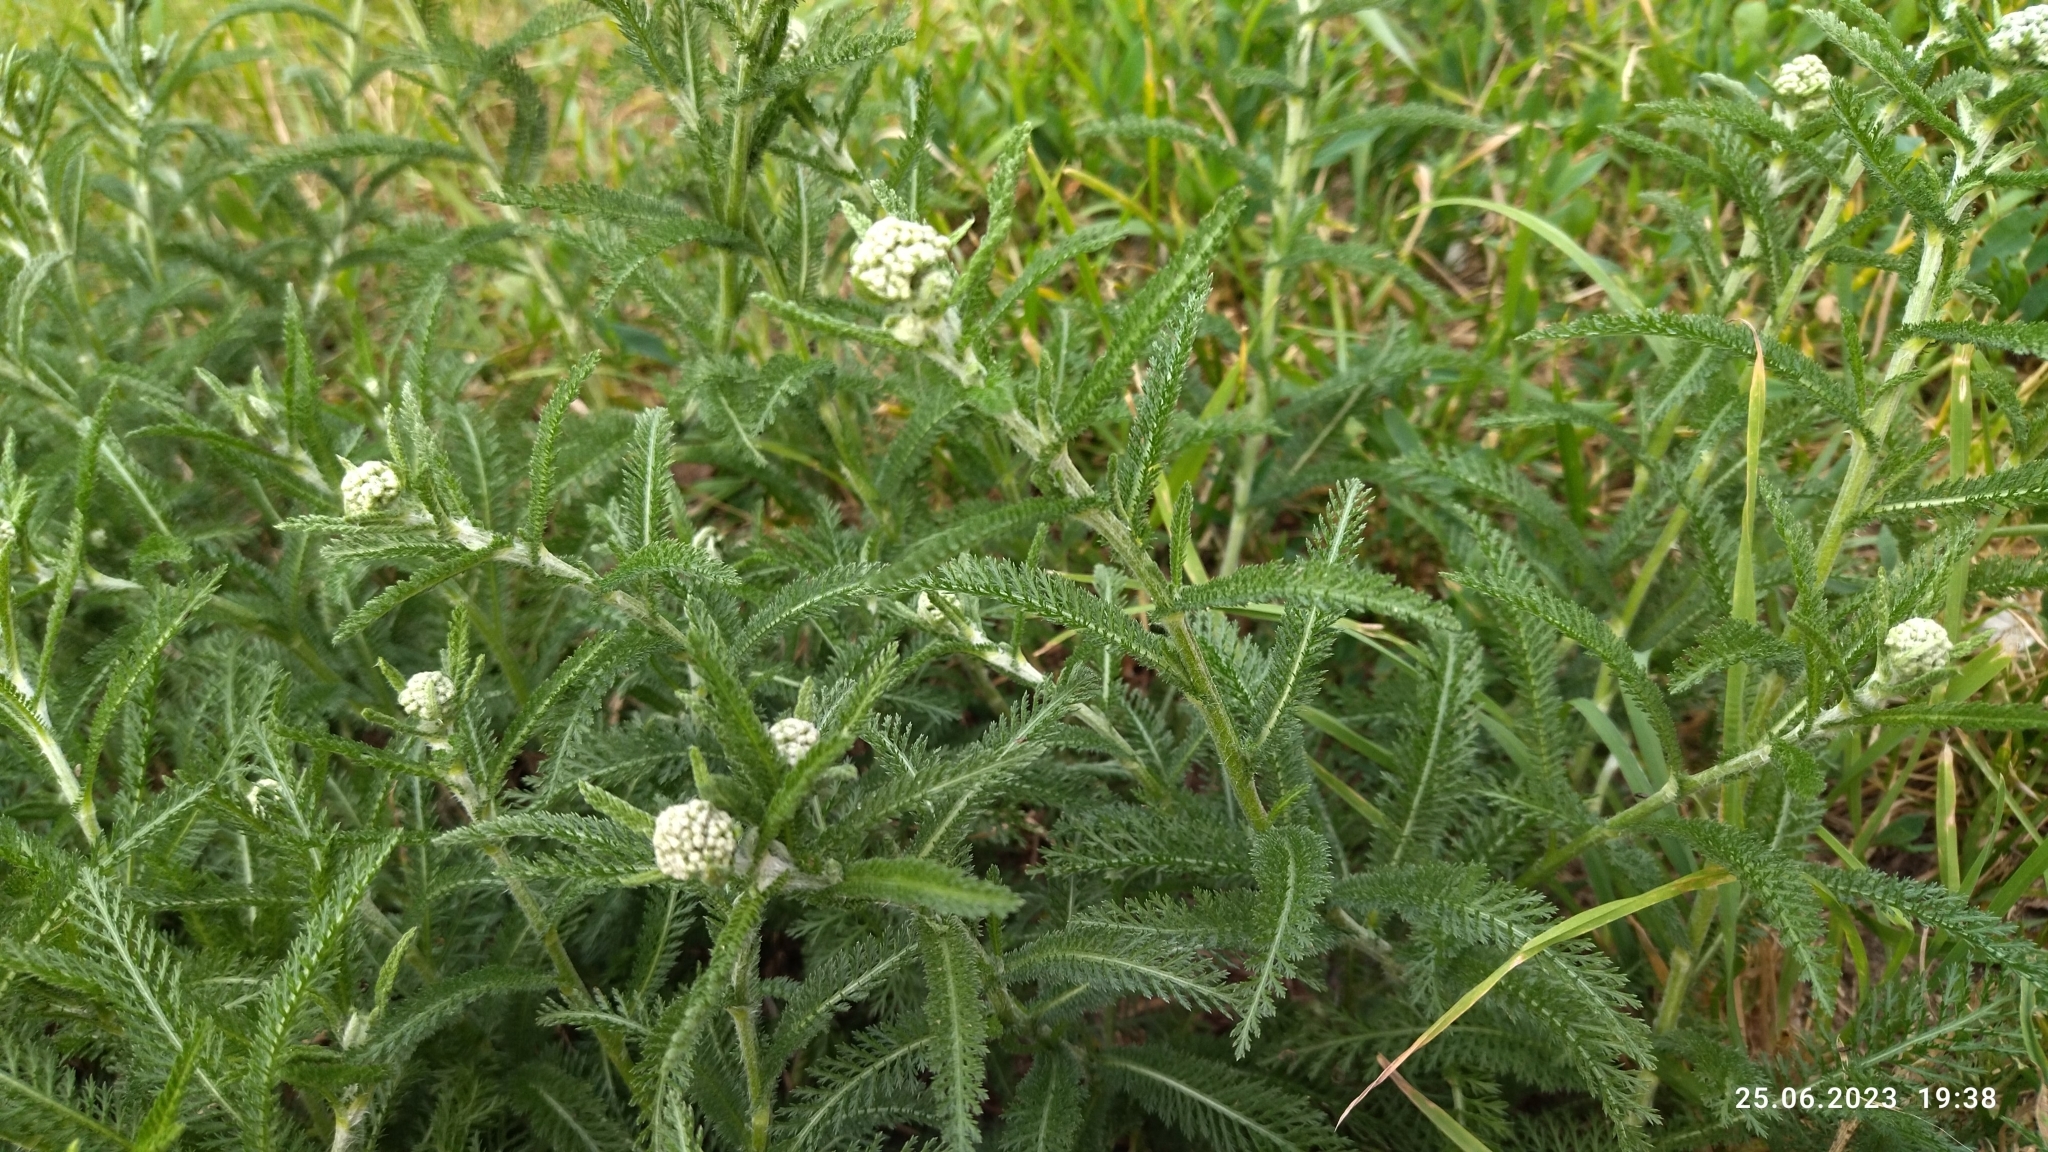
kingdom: Plantae
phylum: Tracheophyta
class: Magnoliopsida
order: Asterales
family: Asteraceae
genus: Achillea
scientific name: Achillea millefolium
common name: Yarrow
